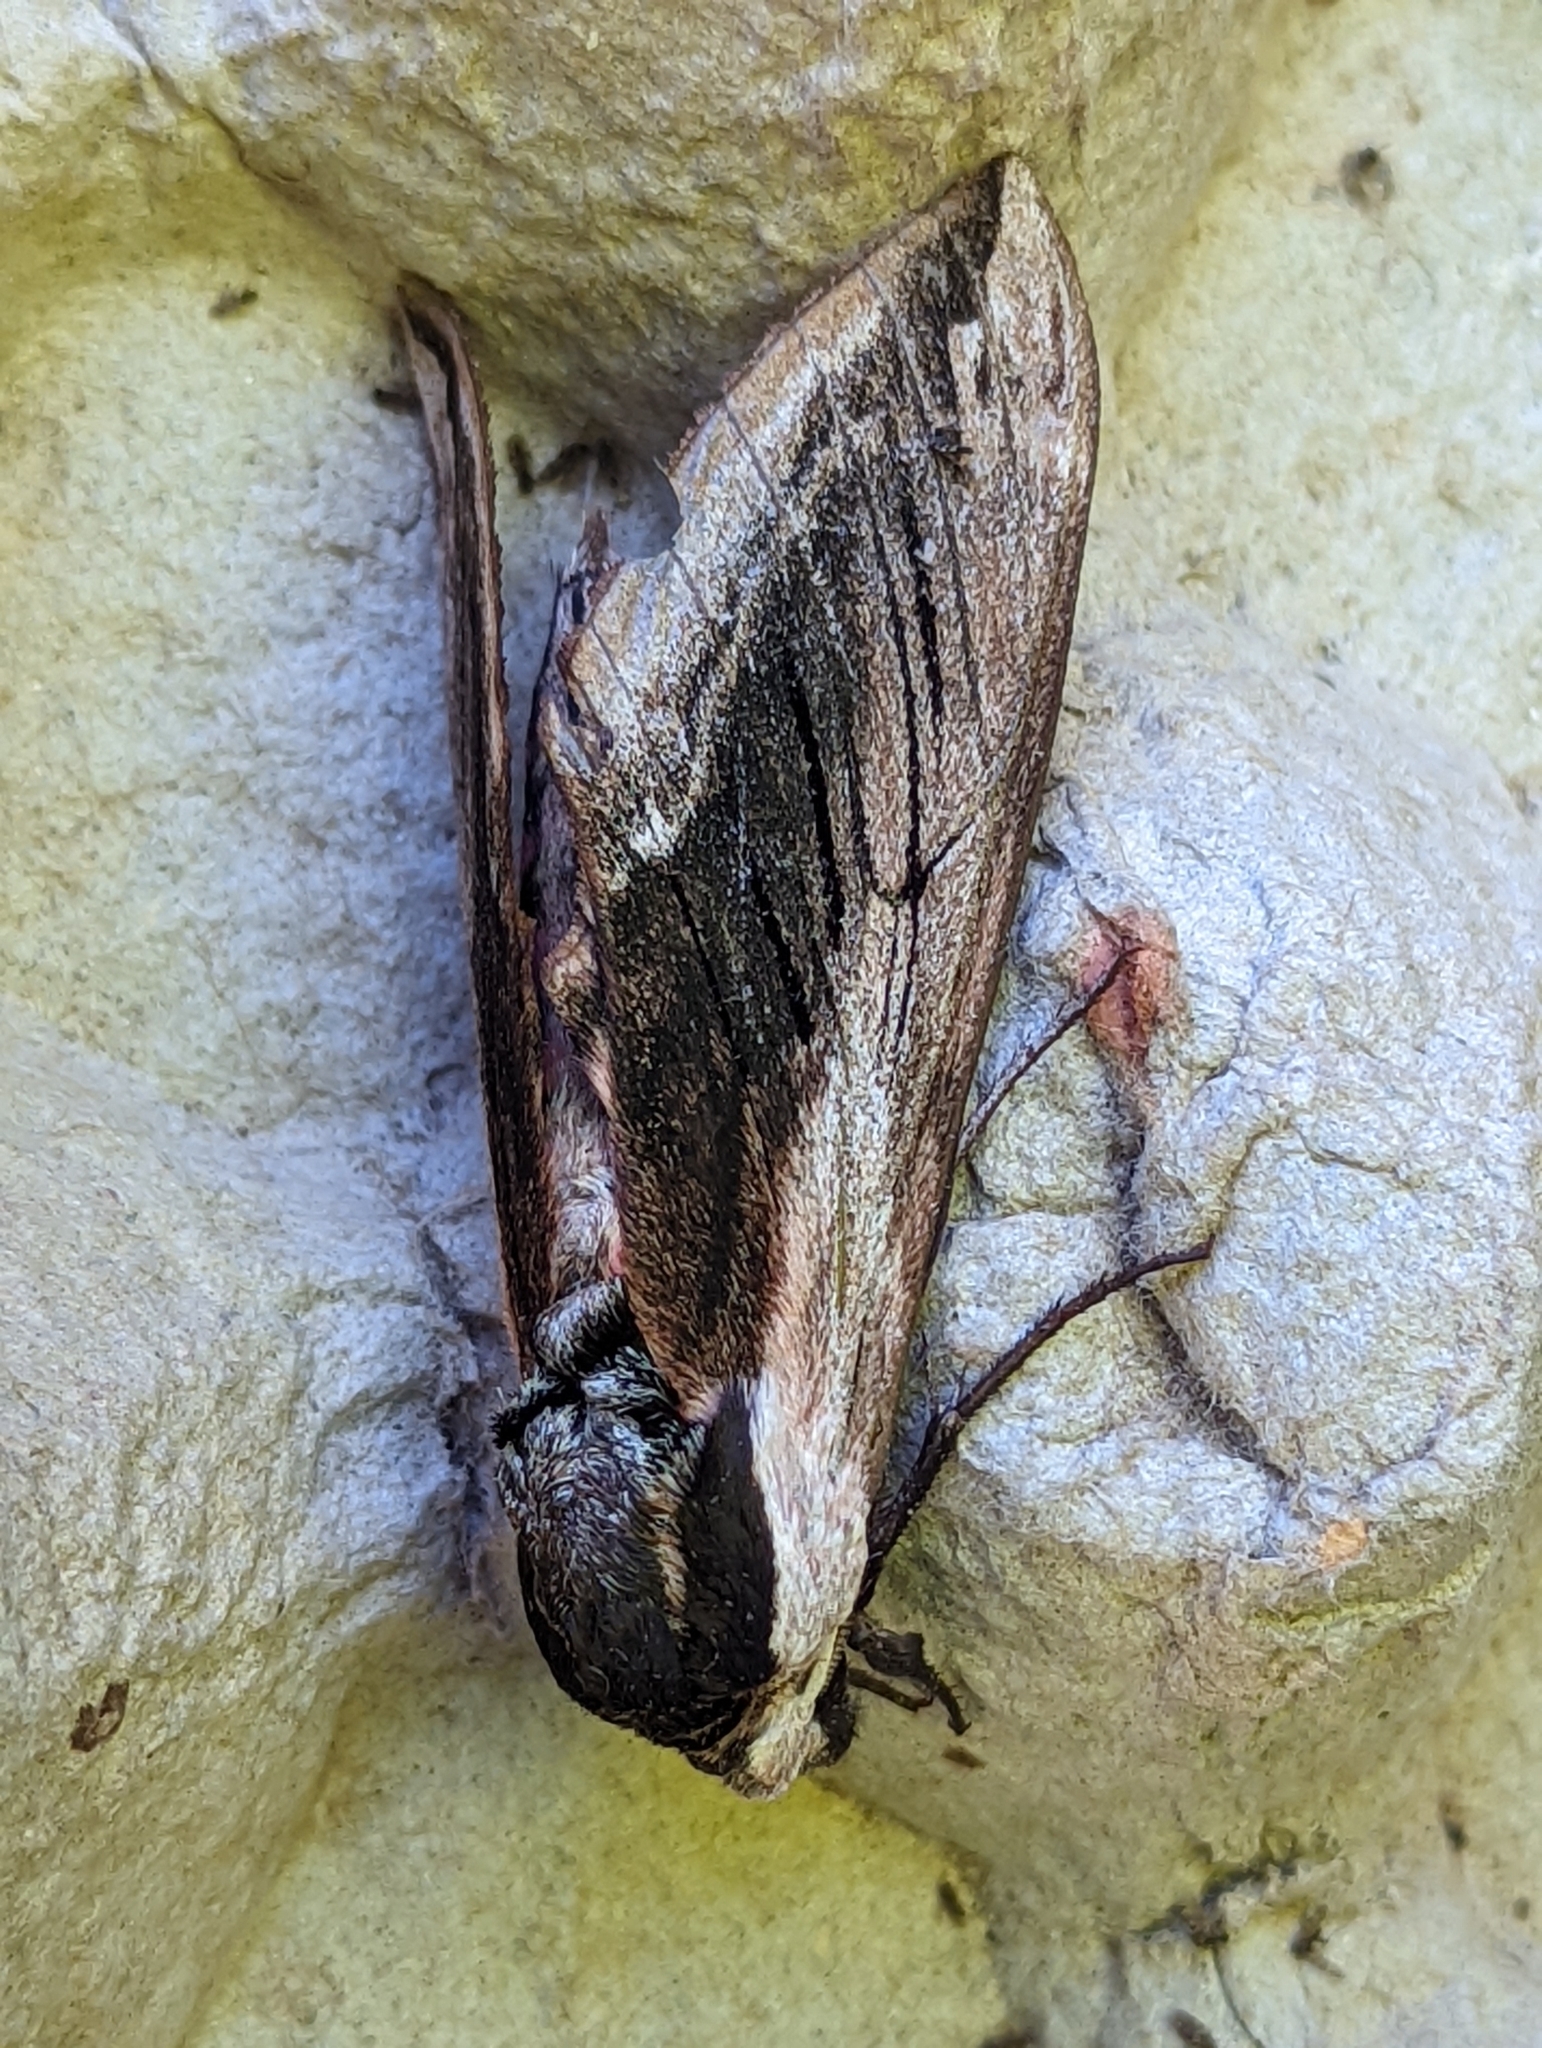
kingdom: Animalia
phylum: Arthropoda
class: Insecta
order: Lepidoptera
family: Sphingidae
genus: Sphinx
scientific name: Sphinx ligustri
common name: Privet hawk-moth
